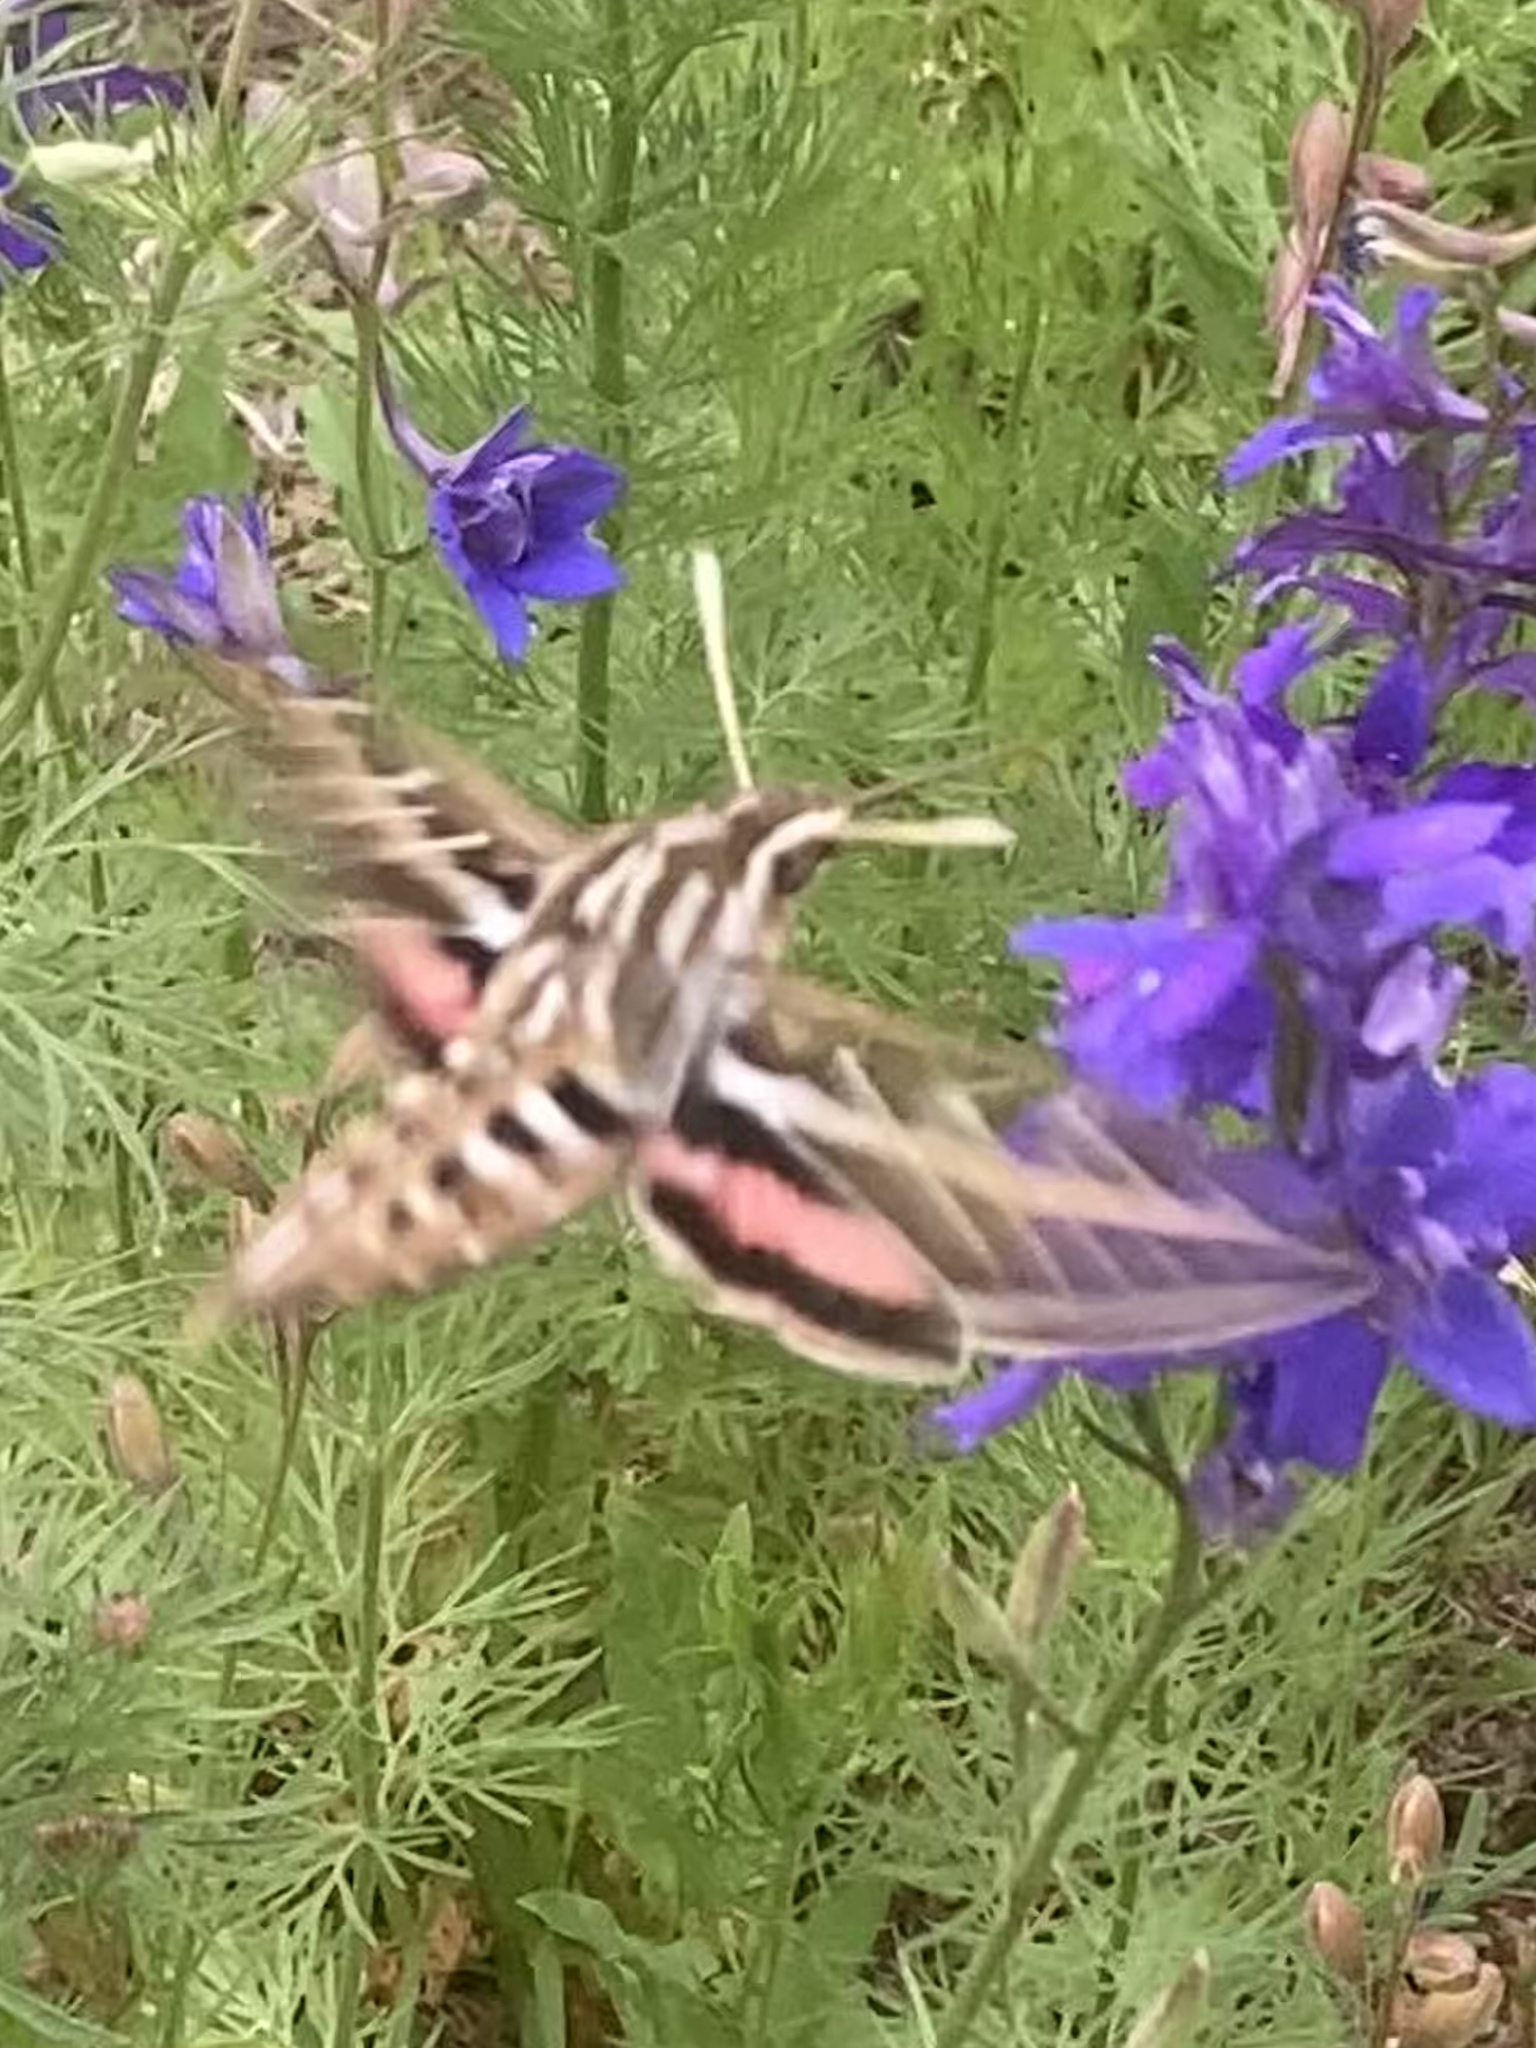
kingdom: Animalia
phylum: Arthropoda
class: Insecta
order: Lepidoptera
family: Sphingidae
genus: Hyles
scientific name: Hyles lineata
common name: White-lined sphinx
